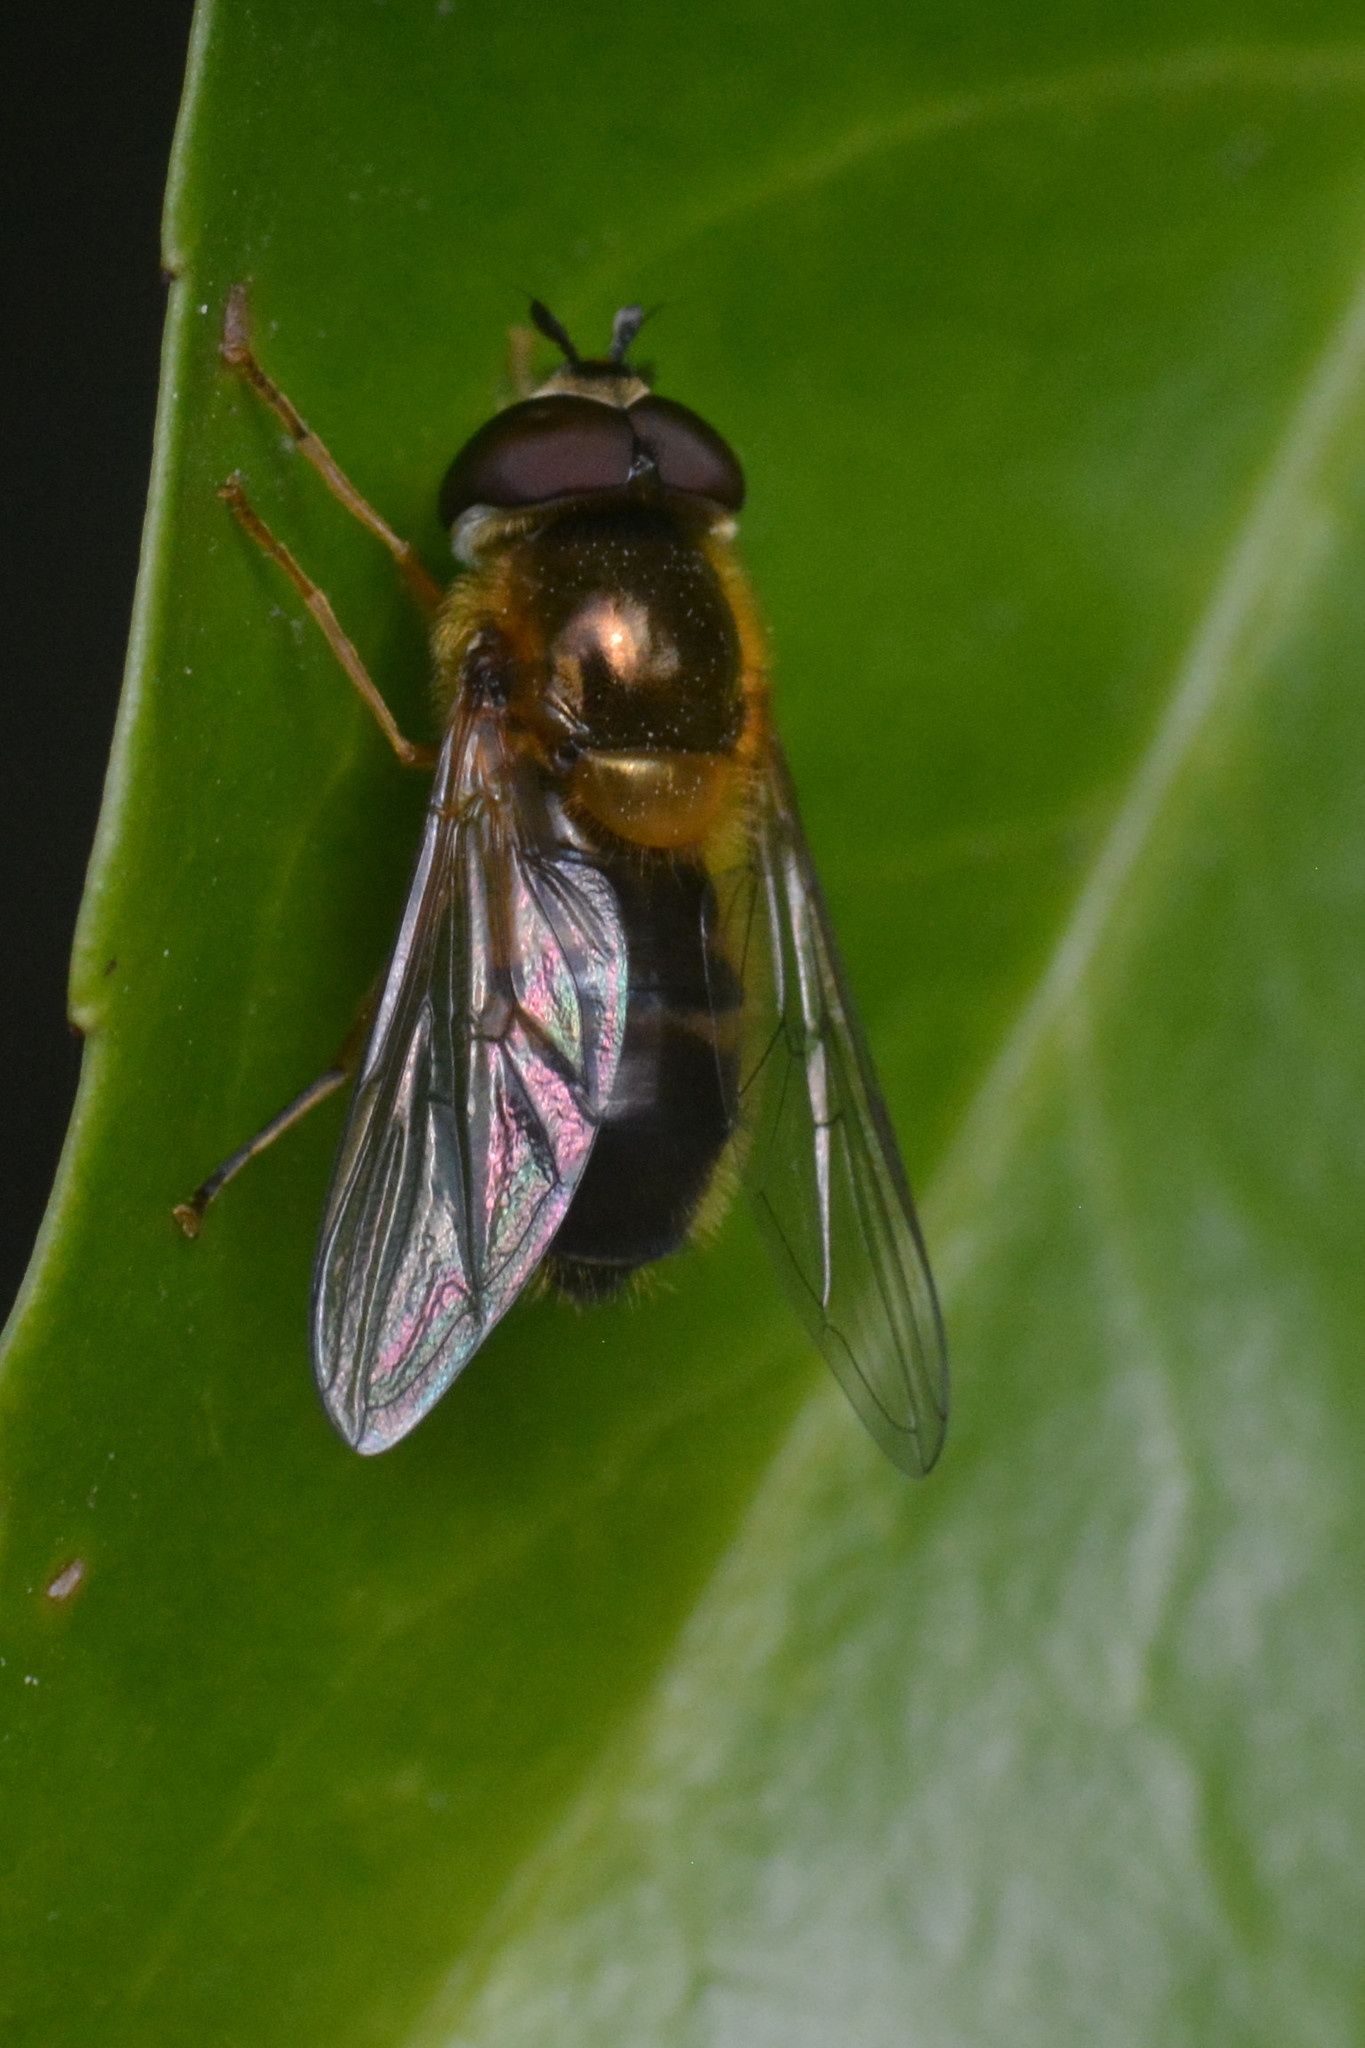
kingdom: Animalia
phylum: Arthropoda
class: Insecta
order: Diptera
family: Syrphidae
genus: Epistrophe
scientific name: Epistrophe eligans
